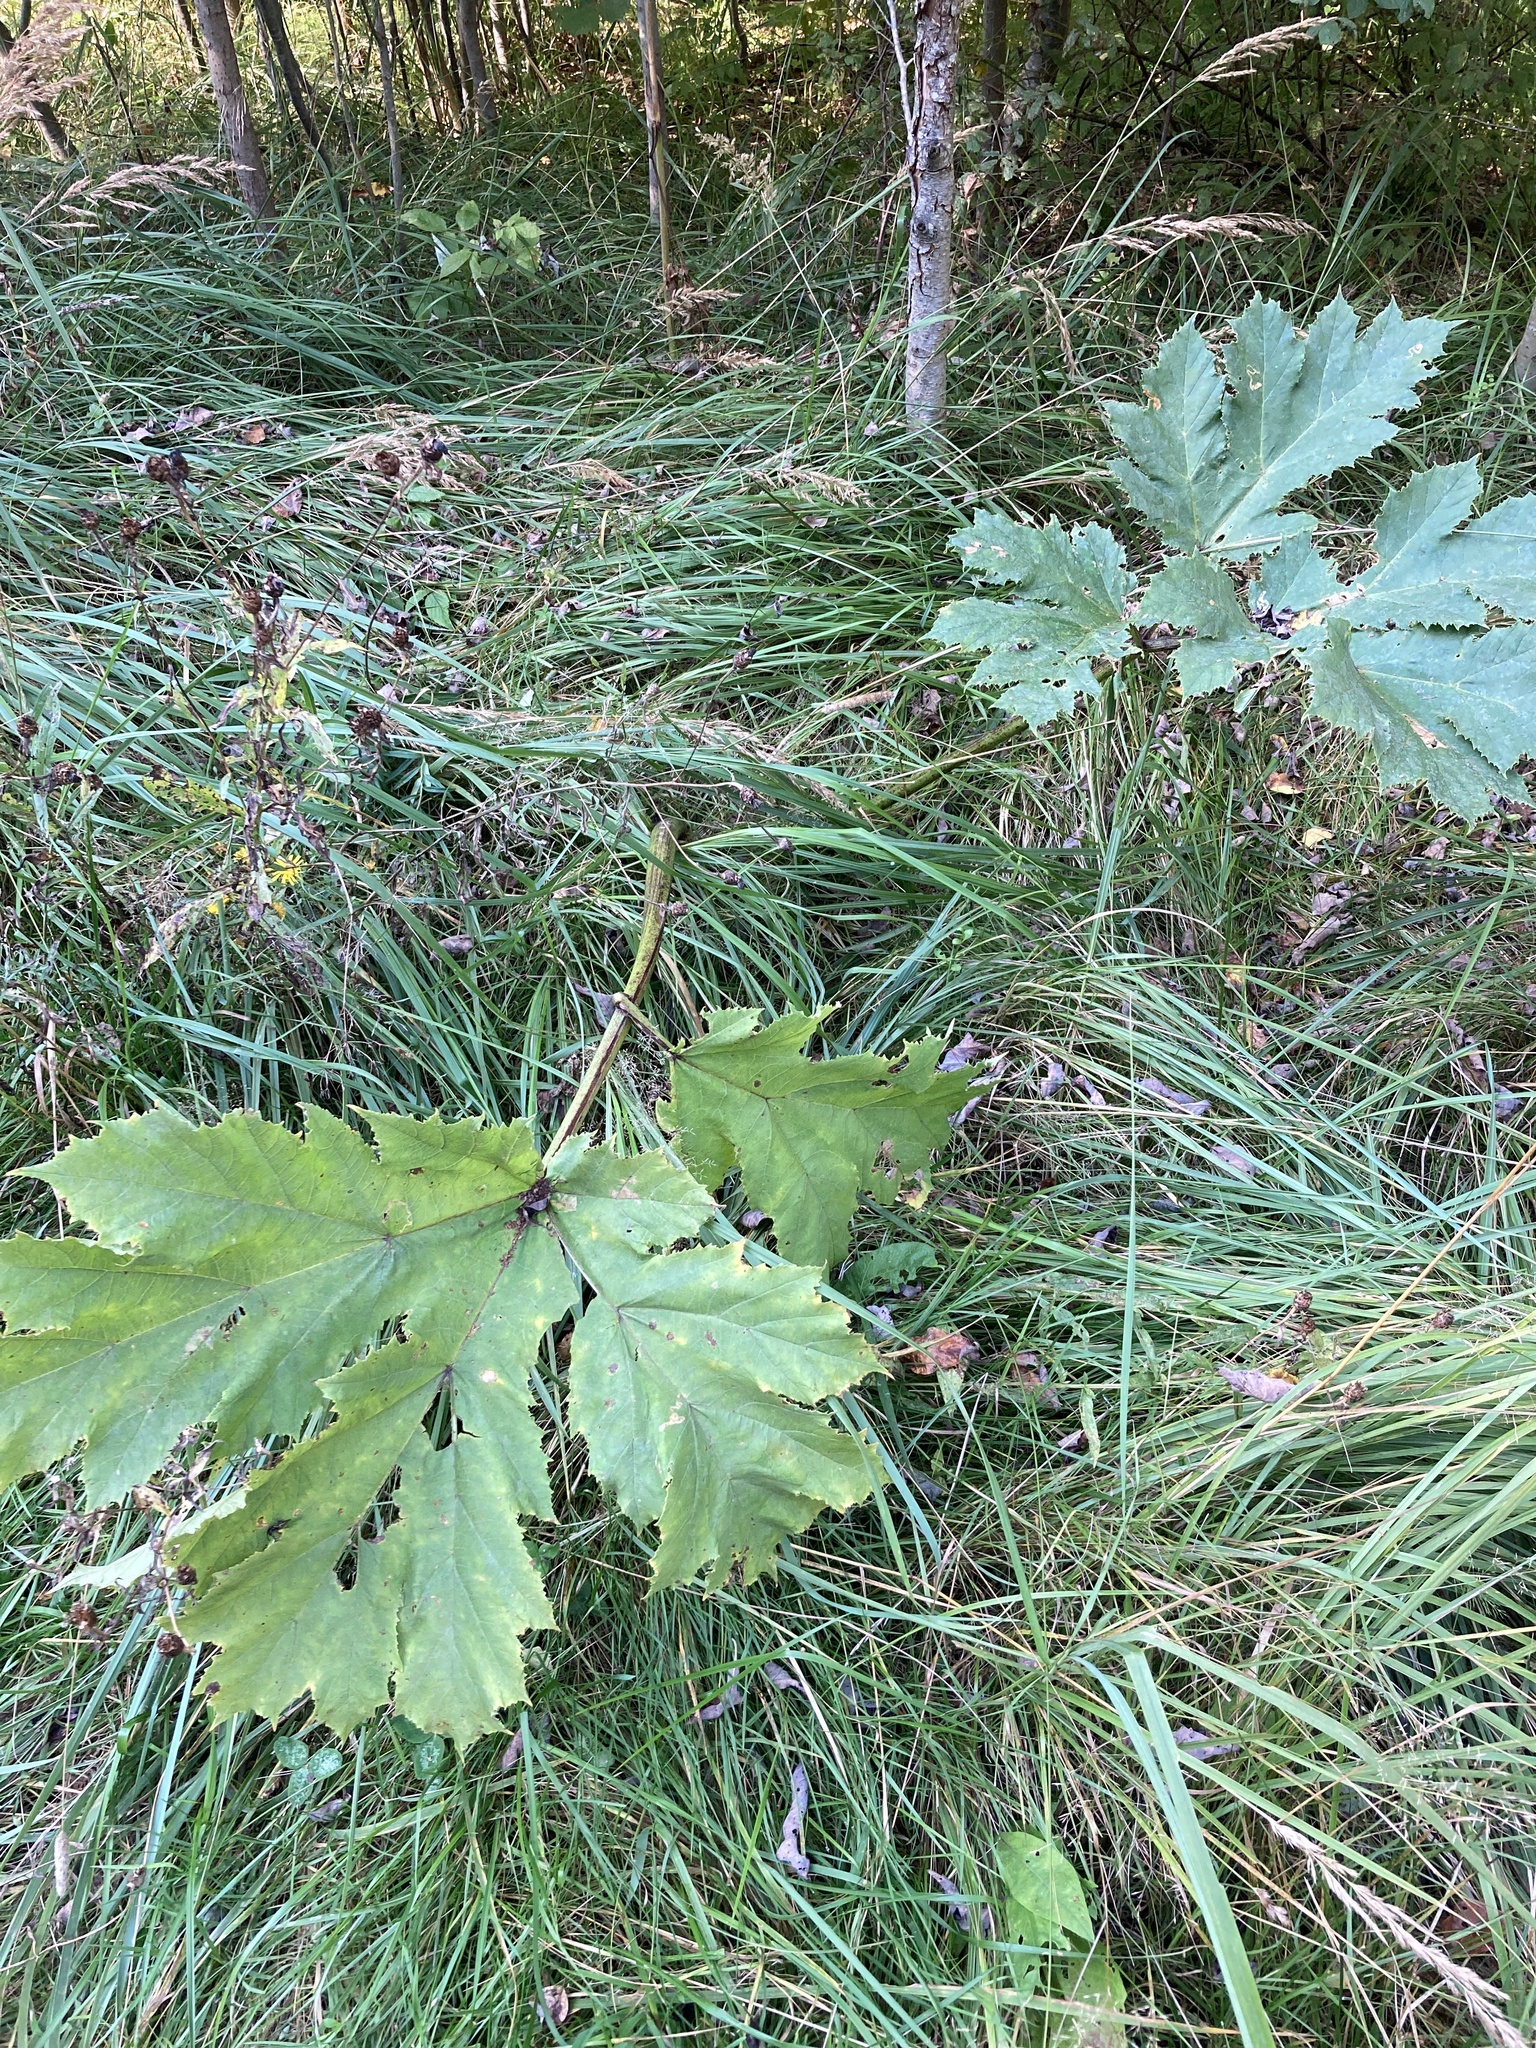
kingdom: Plantae
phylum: Tracheophyta
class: Magnoliopsida
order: Apiales
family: Apiaceae
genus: Heracleum
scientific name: Heracleum sosnowskyi
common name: Sosnowsky's hogweed
